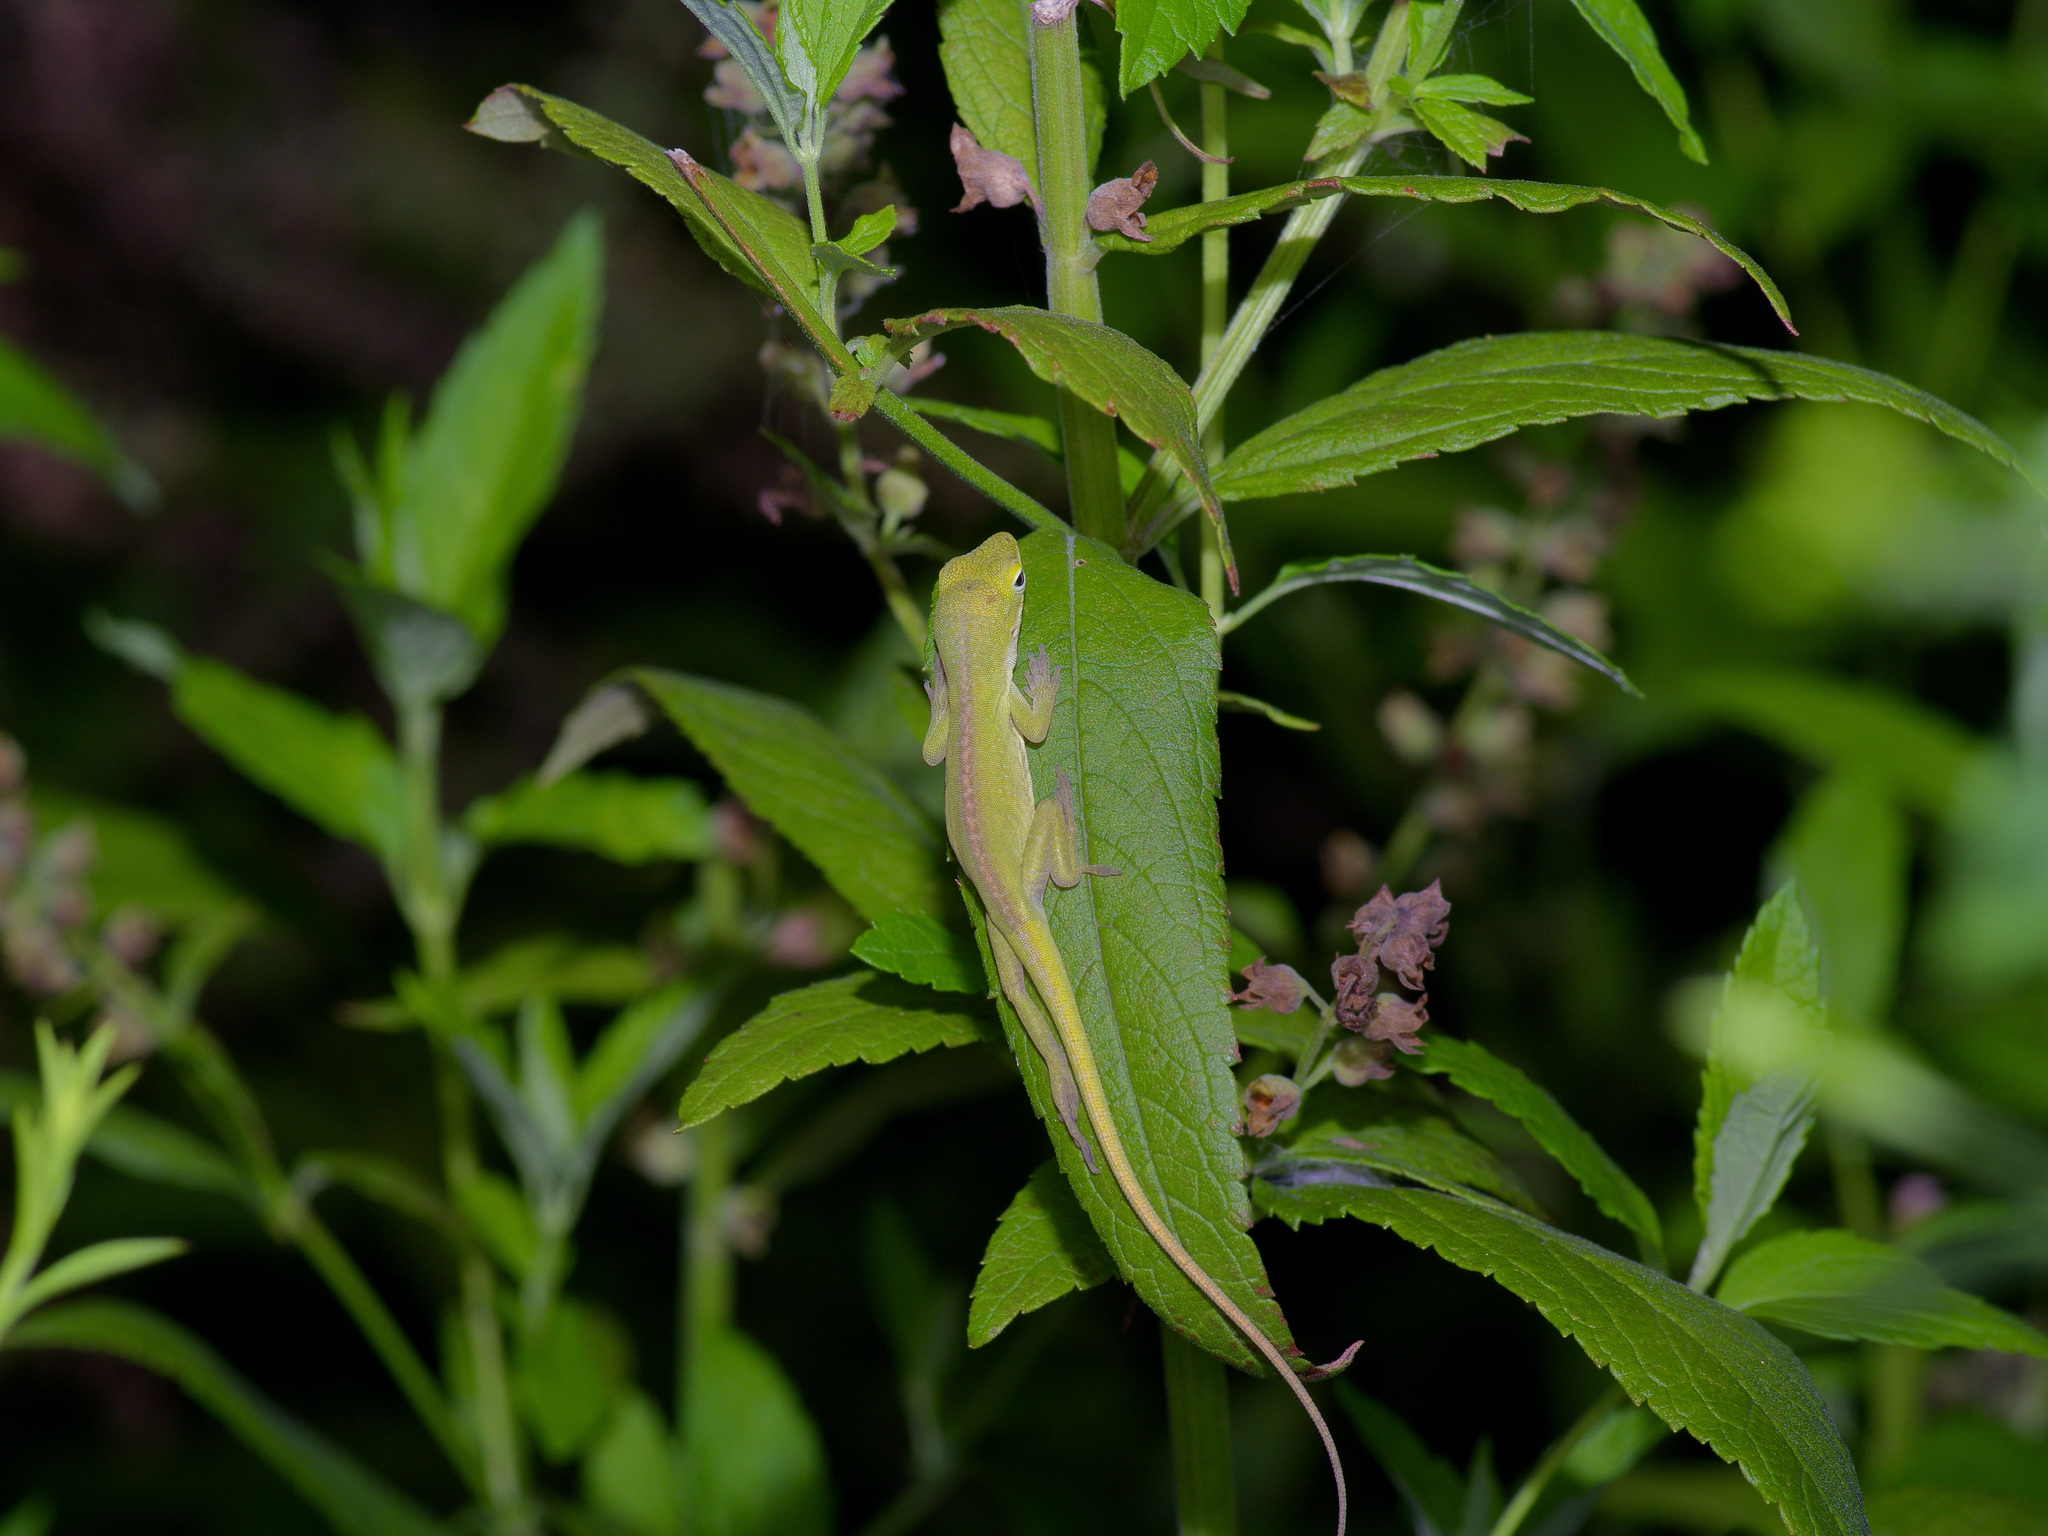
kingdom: Animalia
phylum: Chordata
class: Squamata
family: Dactyloidae
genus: Anolis
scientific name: Anolis carolinensis
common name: Green anole
